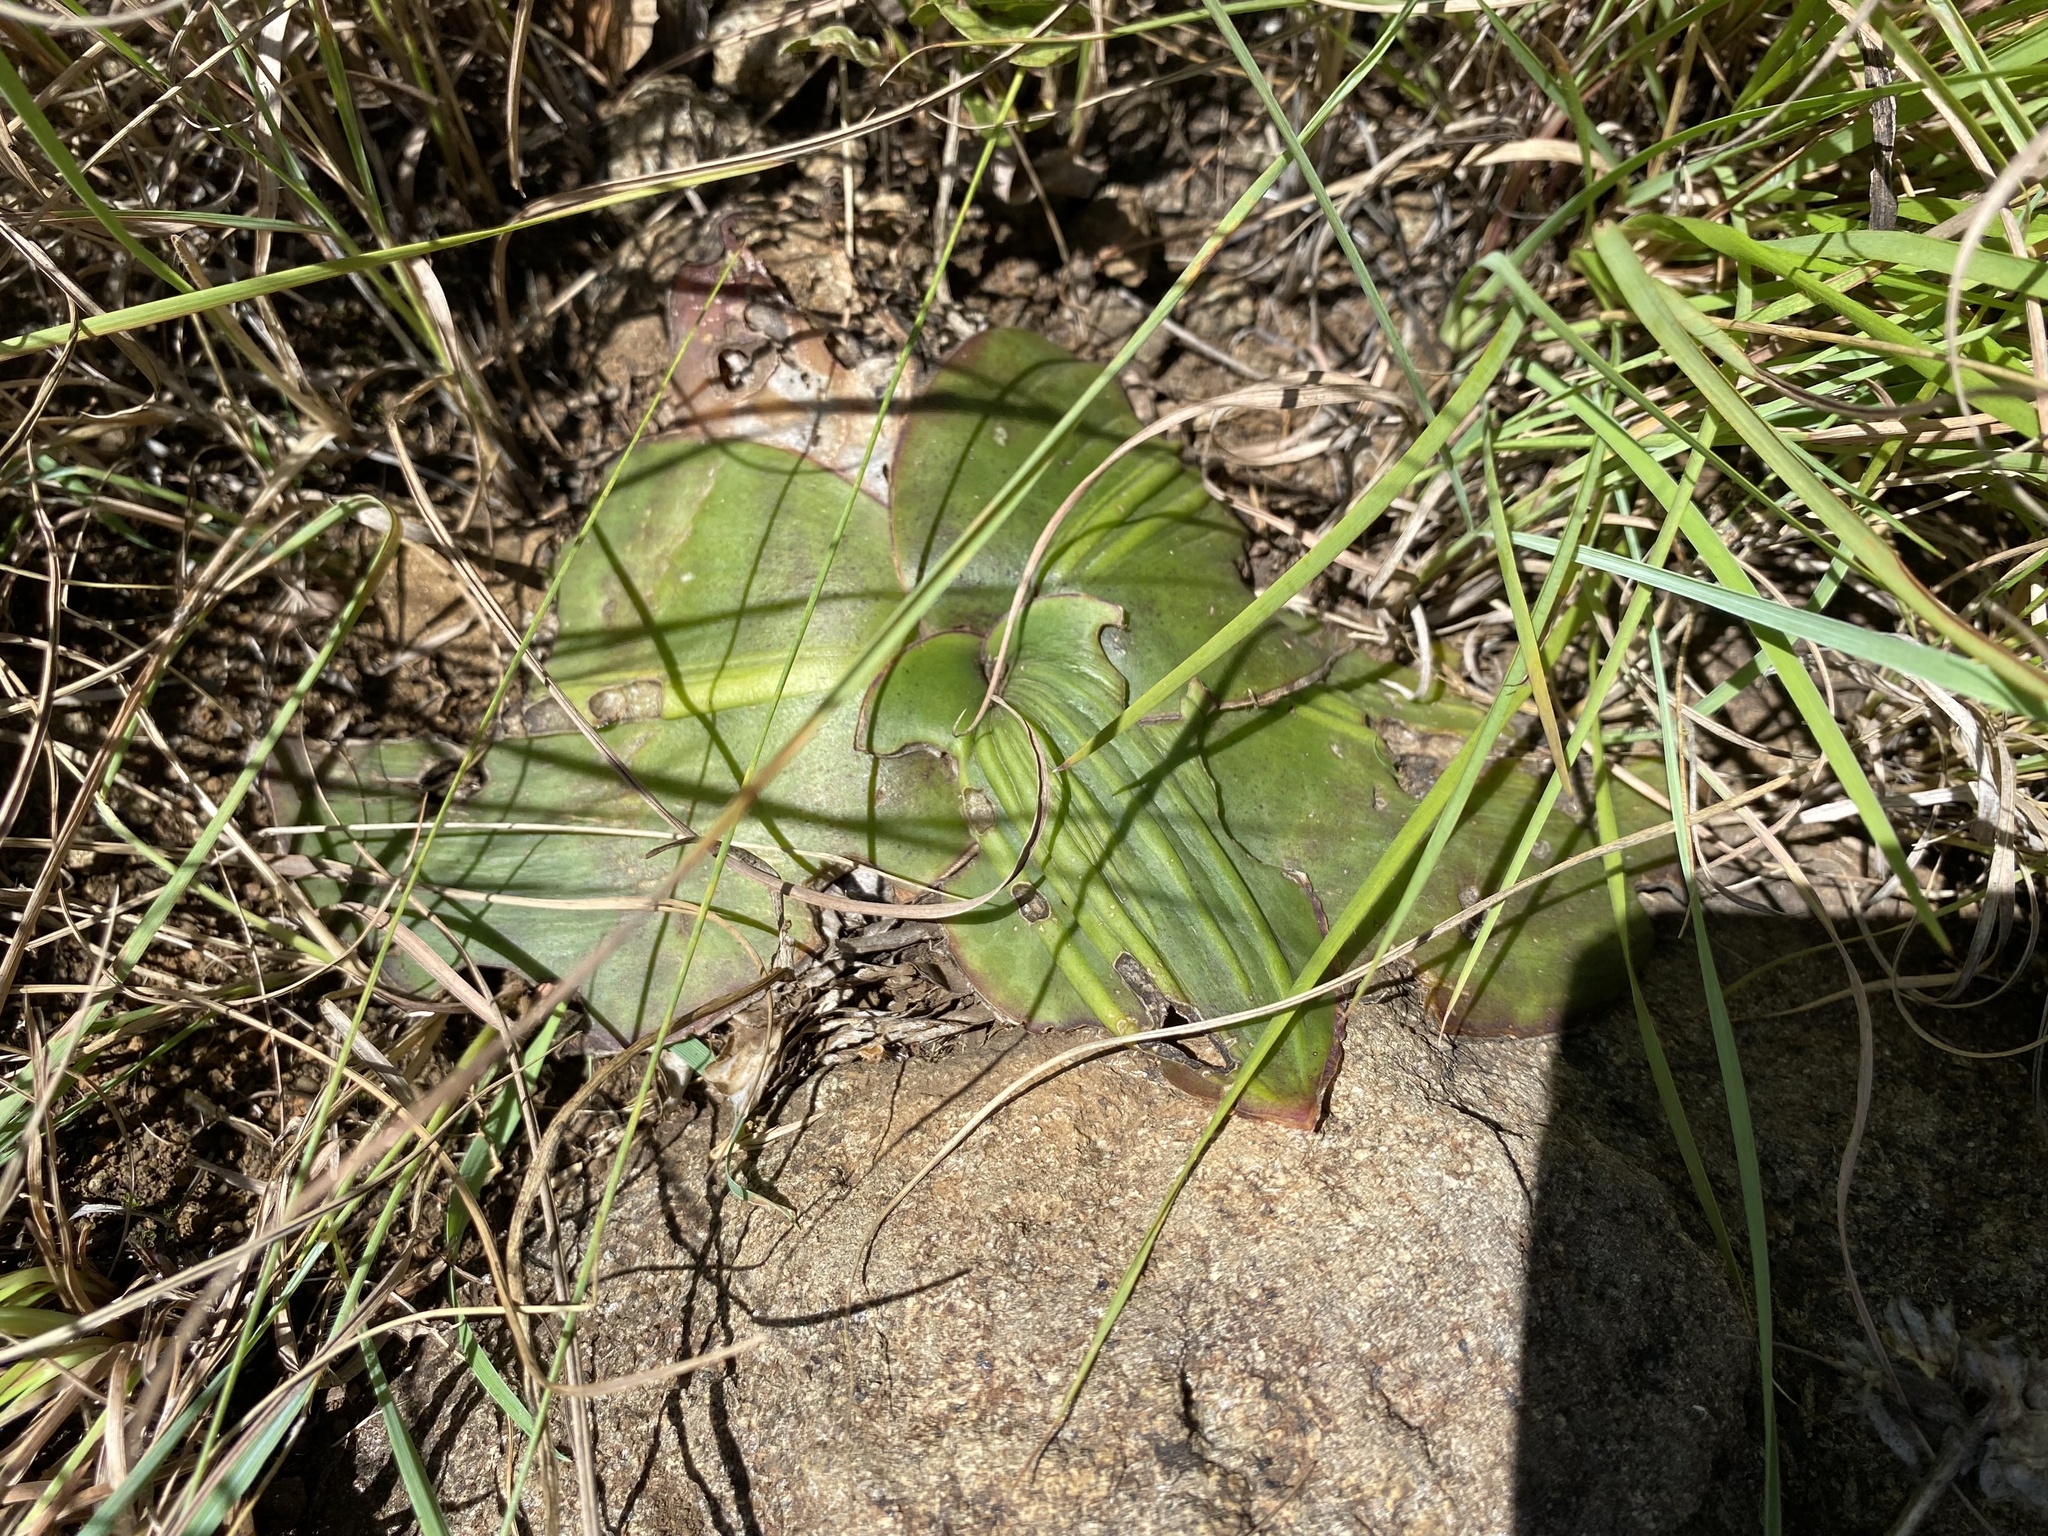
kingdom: Plantae
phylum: Tracheophyta
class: Liliopsida
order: Asparagales
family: Asparagaceae
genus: Ledebouria
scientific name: Ledebouria ovatifolia
